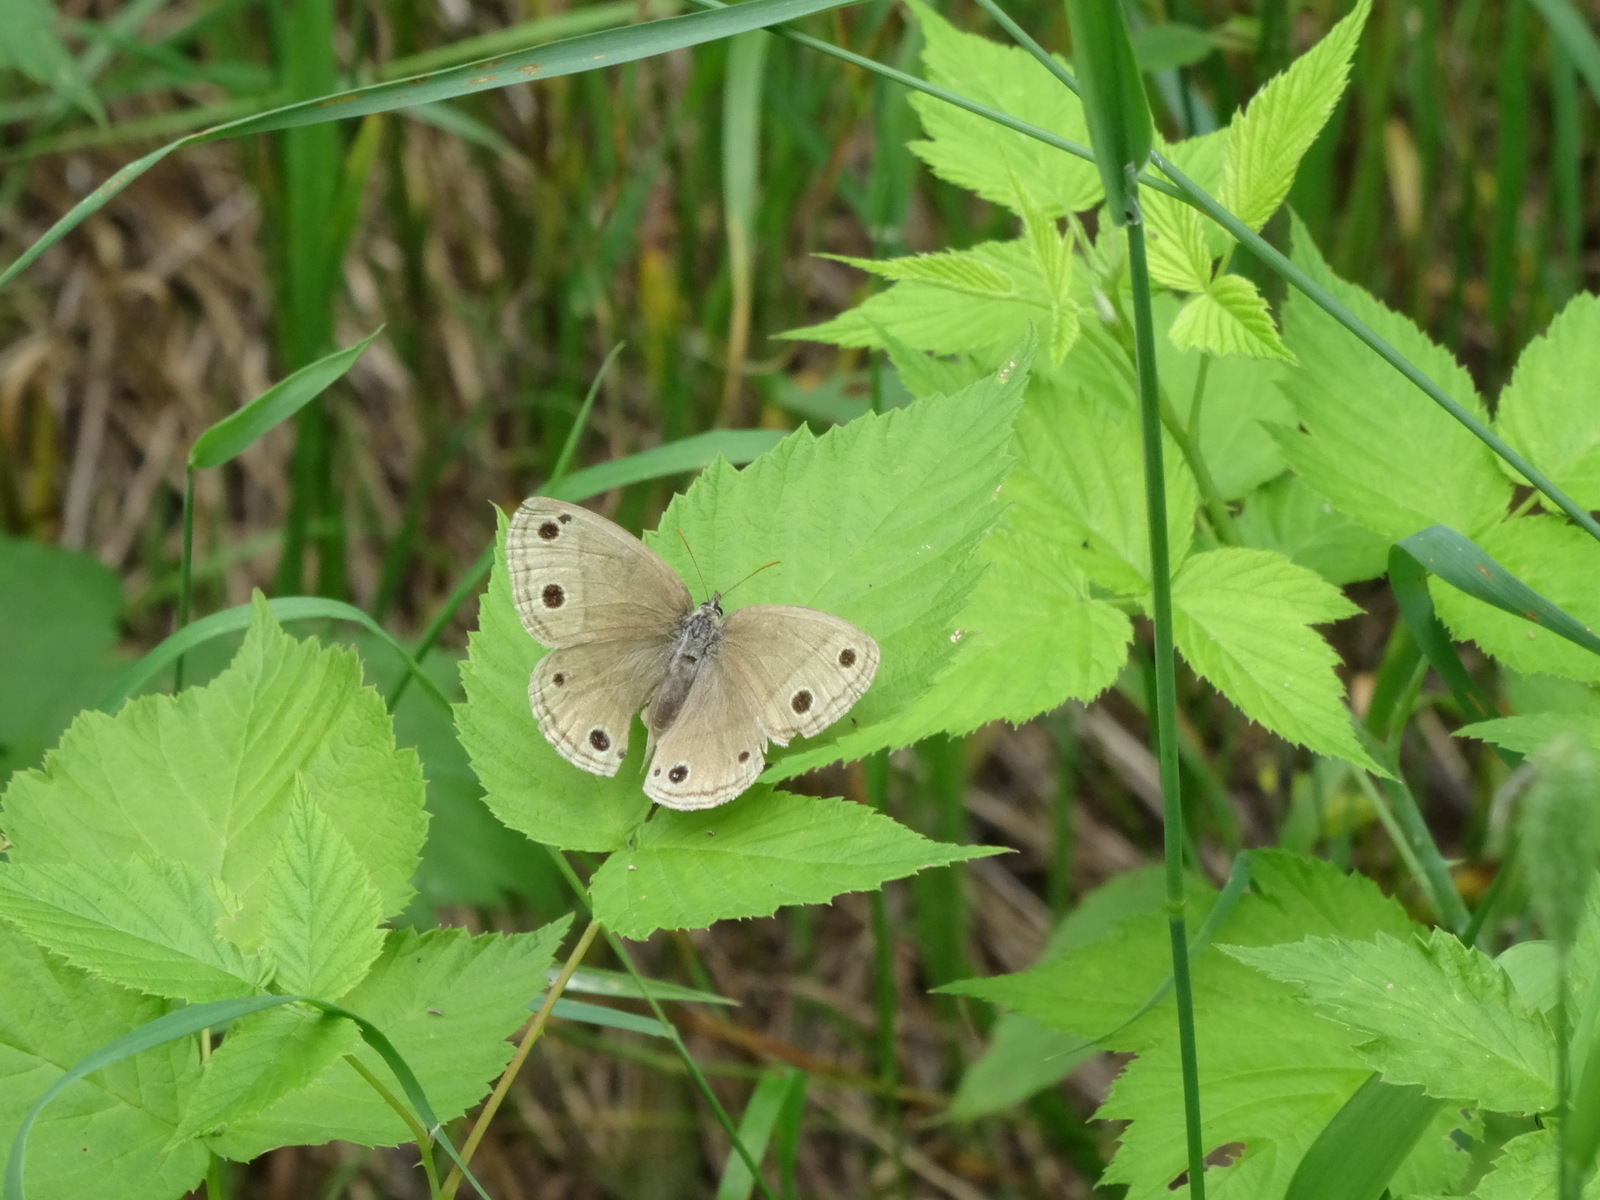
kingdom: Animalia
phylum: Arthropoda
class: Insecta
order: Lepidoptera
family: Nymphalidae
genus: Euptychia
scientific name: Euptychia cymela
